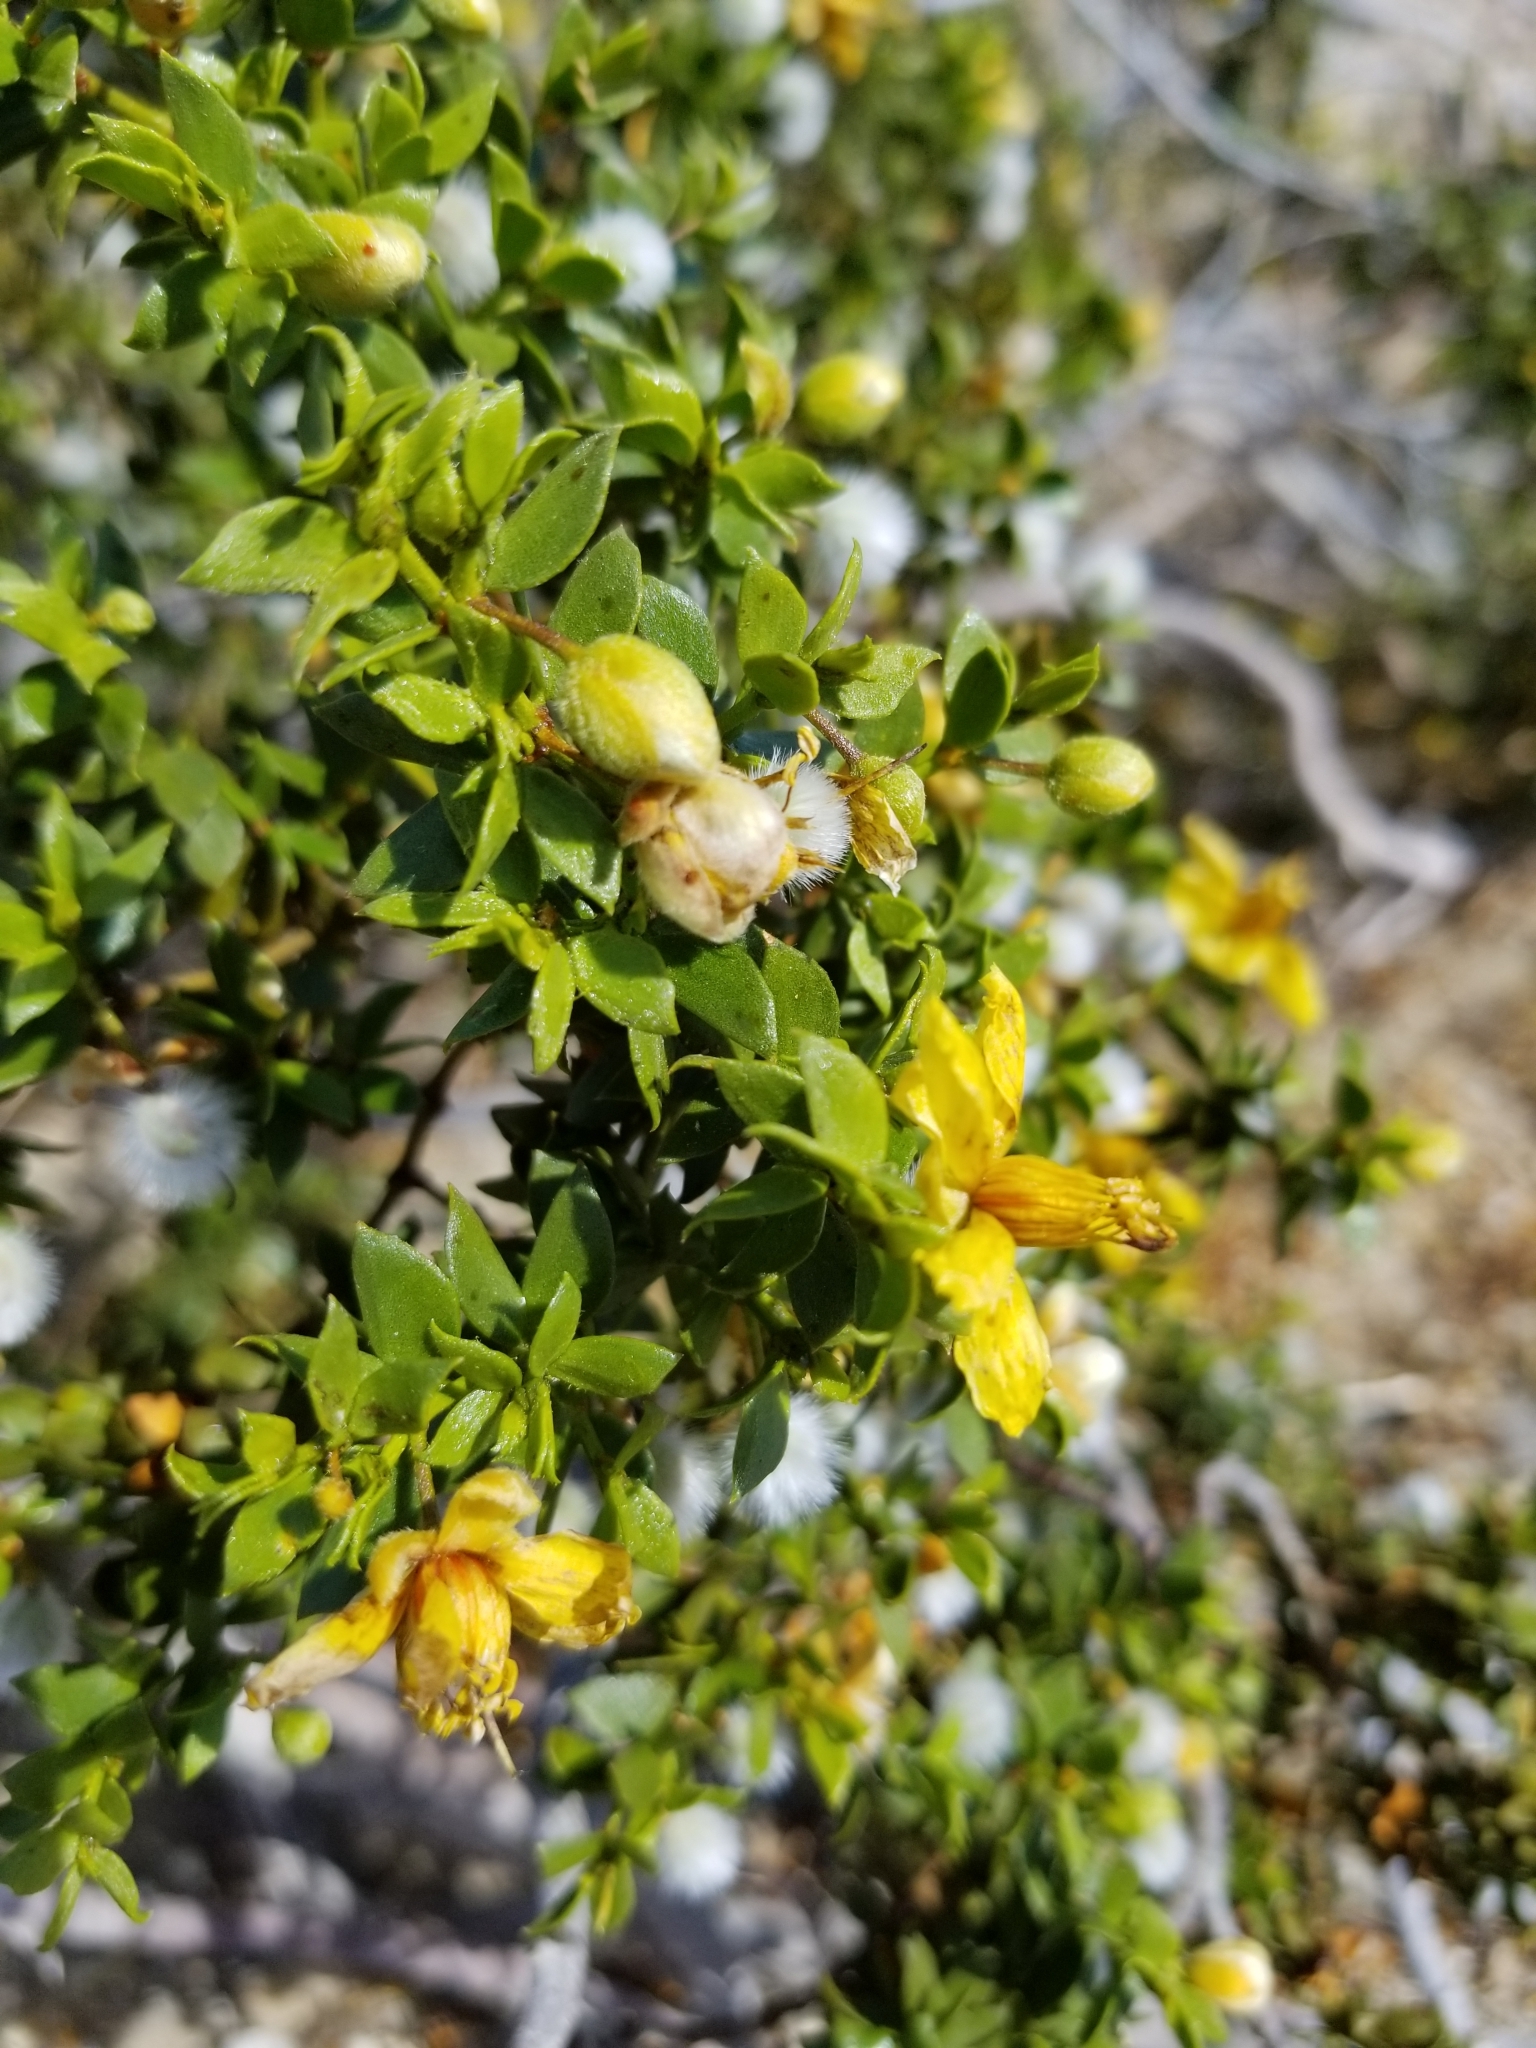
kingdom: Plantae
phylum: Tracheophyta
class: Magnoliopsida
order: Zygophyllales
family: Zygophyllaceae
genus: Larrea
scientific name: Larrea tridentata
